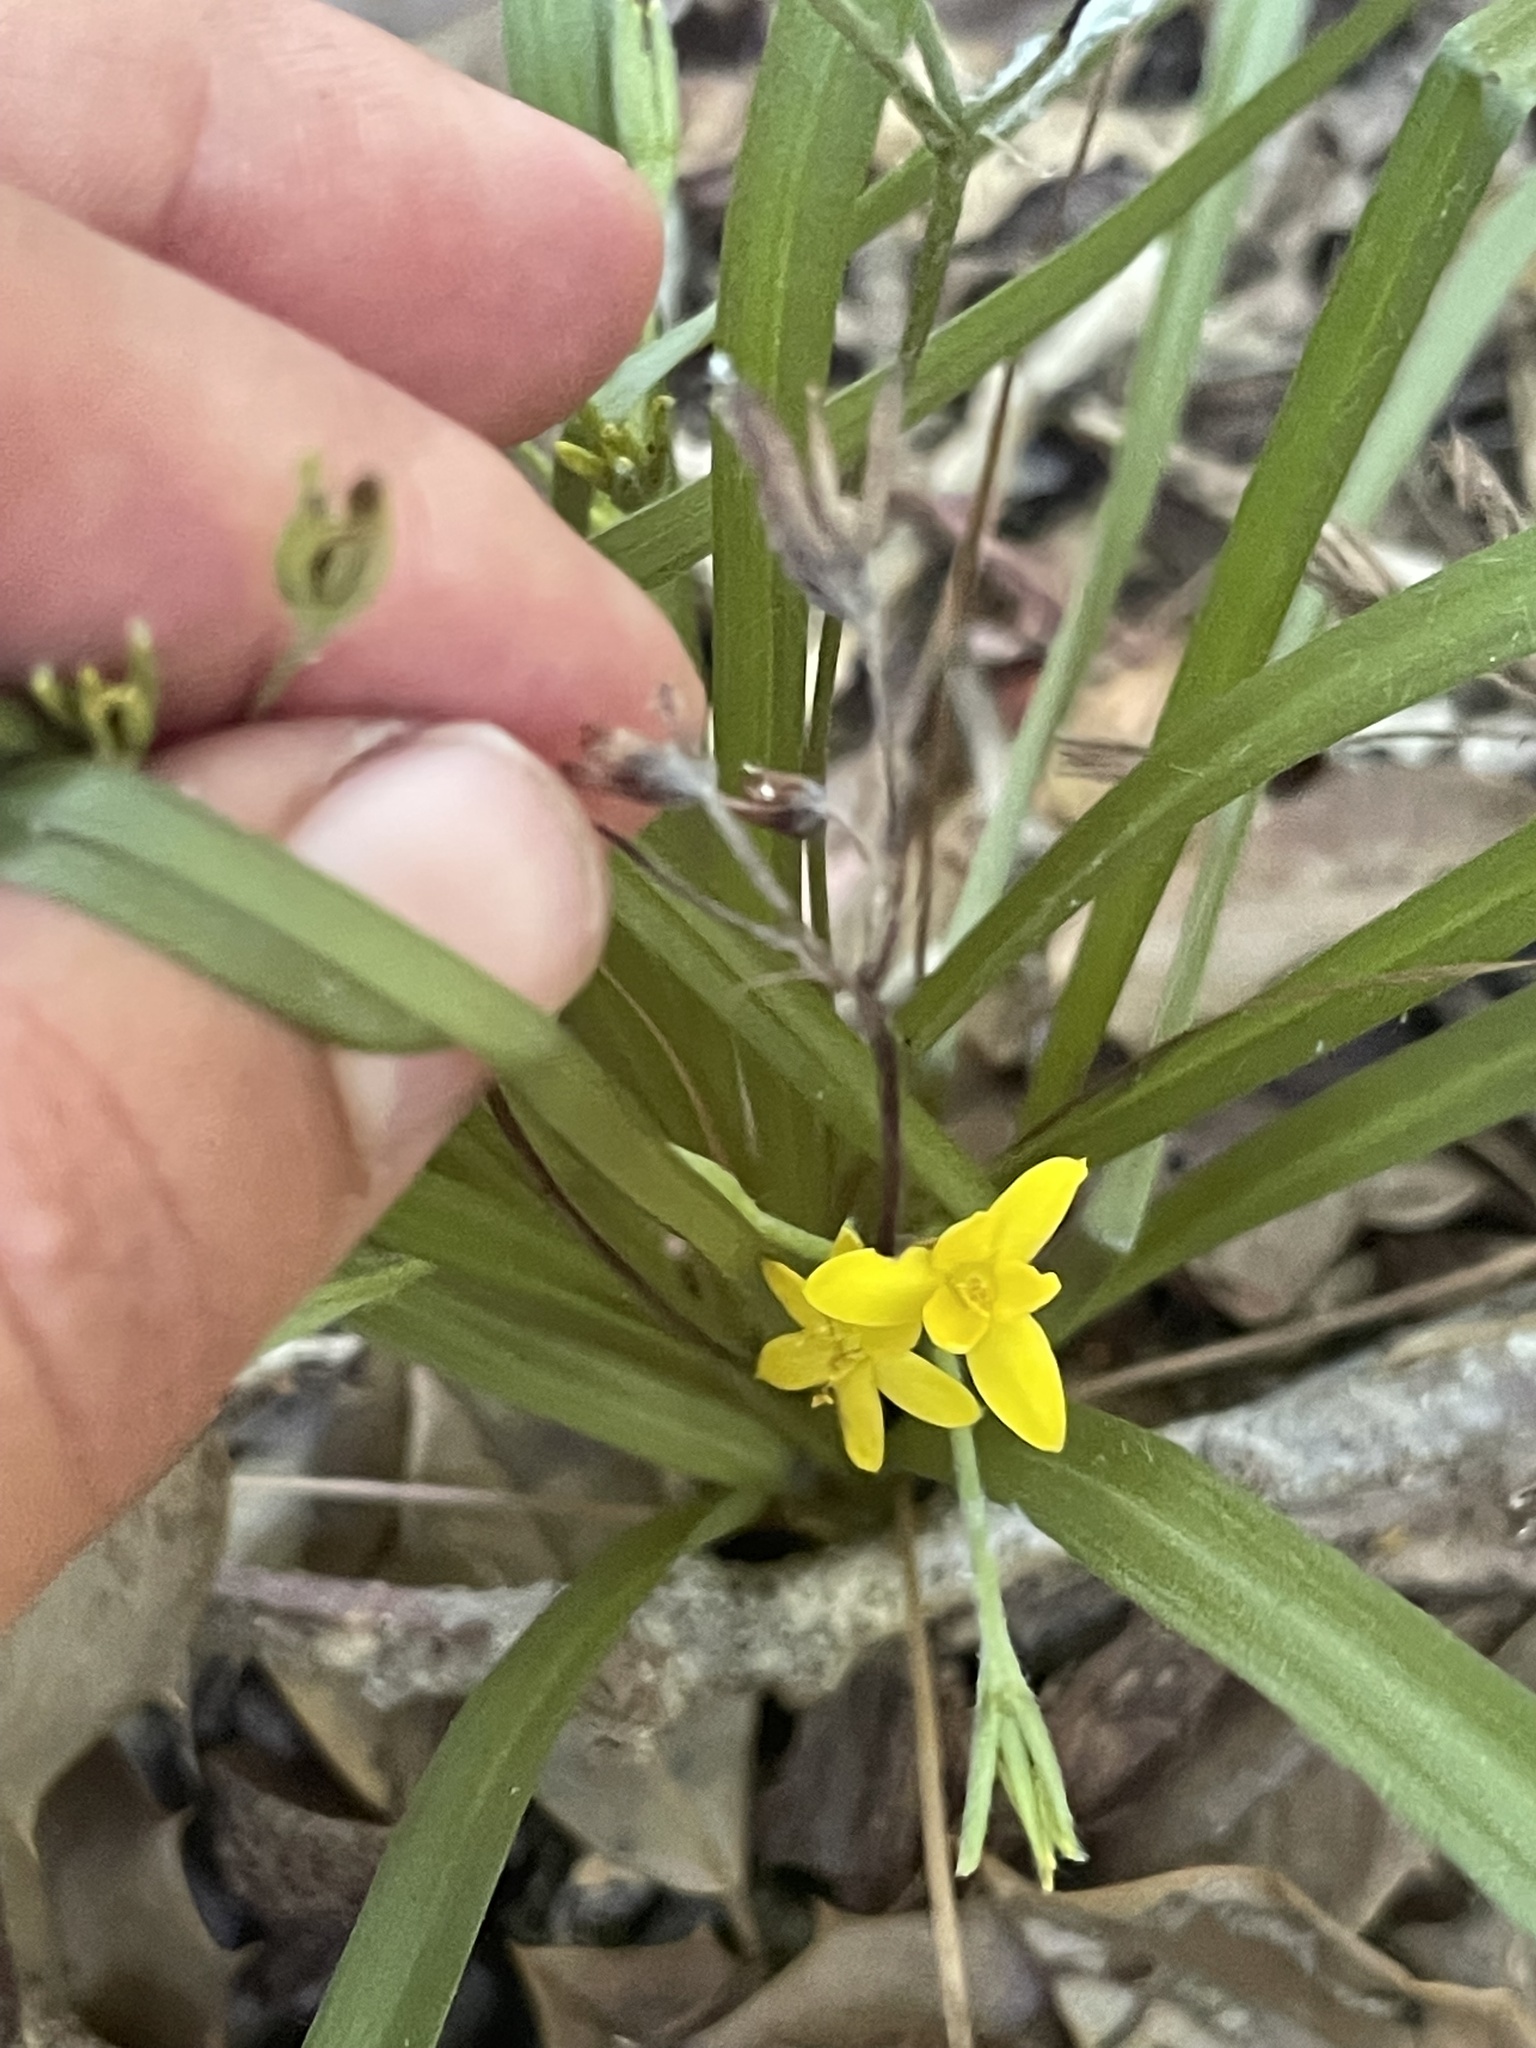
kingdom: Plantae
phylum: Tracheophyta
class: Liliopsida
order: Asparagales
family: Hypoxidaceae
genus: Hypoxis
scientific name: Hypoxis hirsuta
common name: Common goldstar
